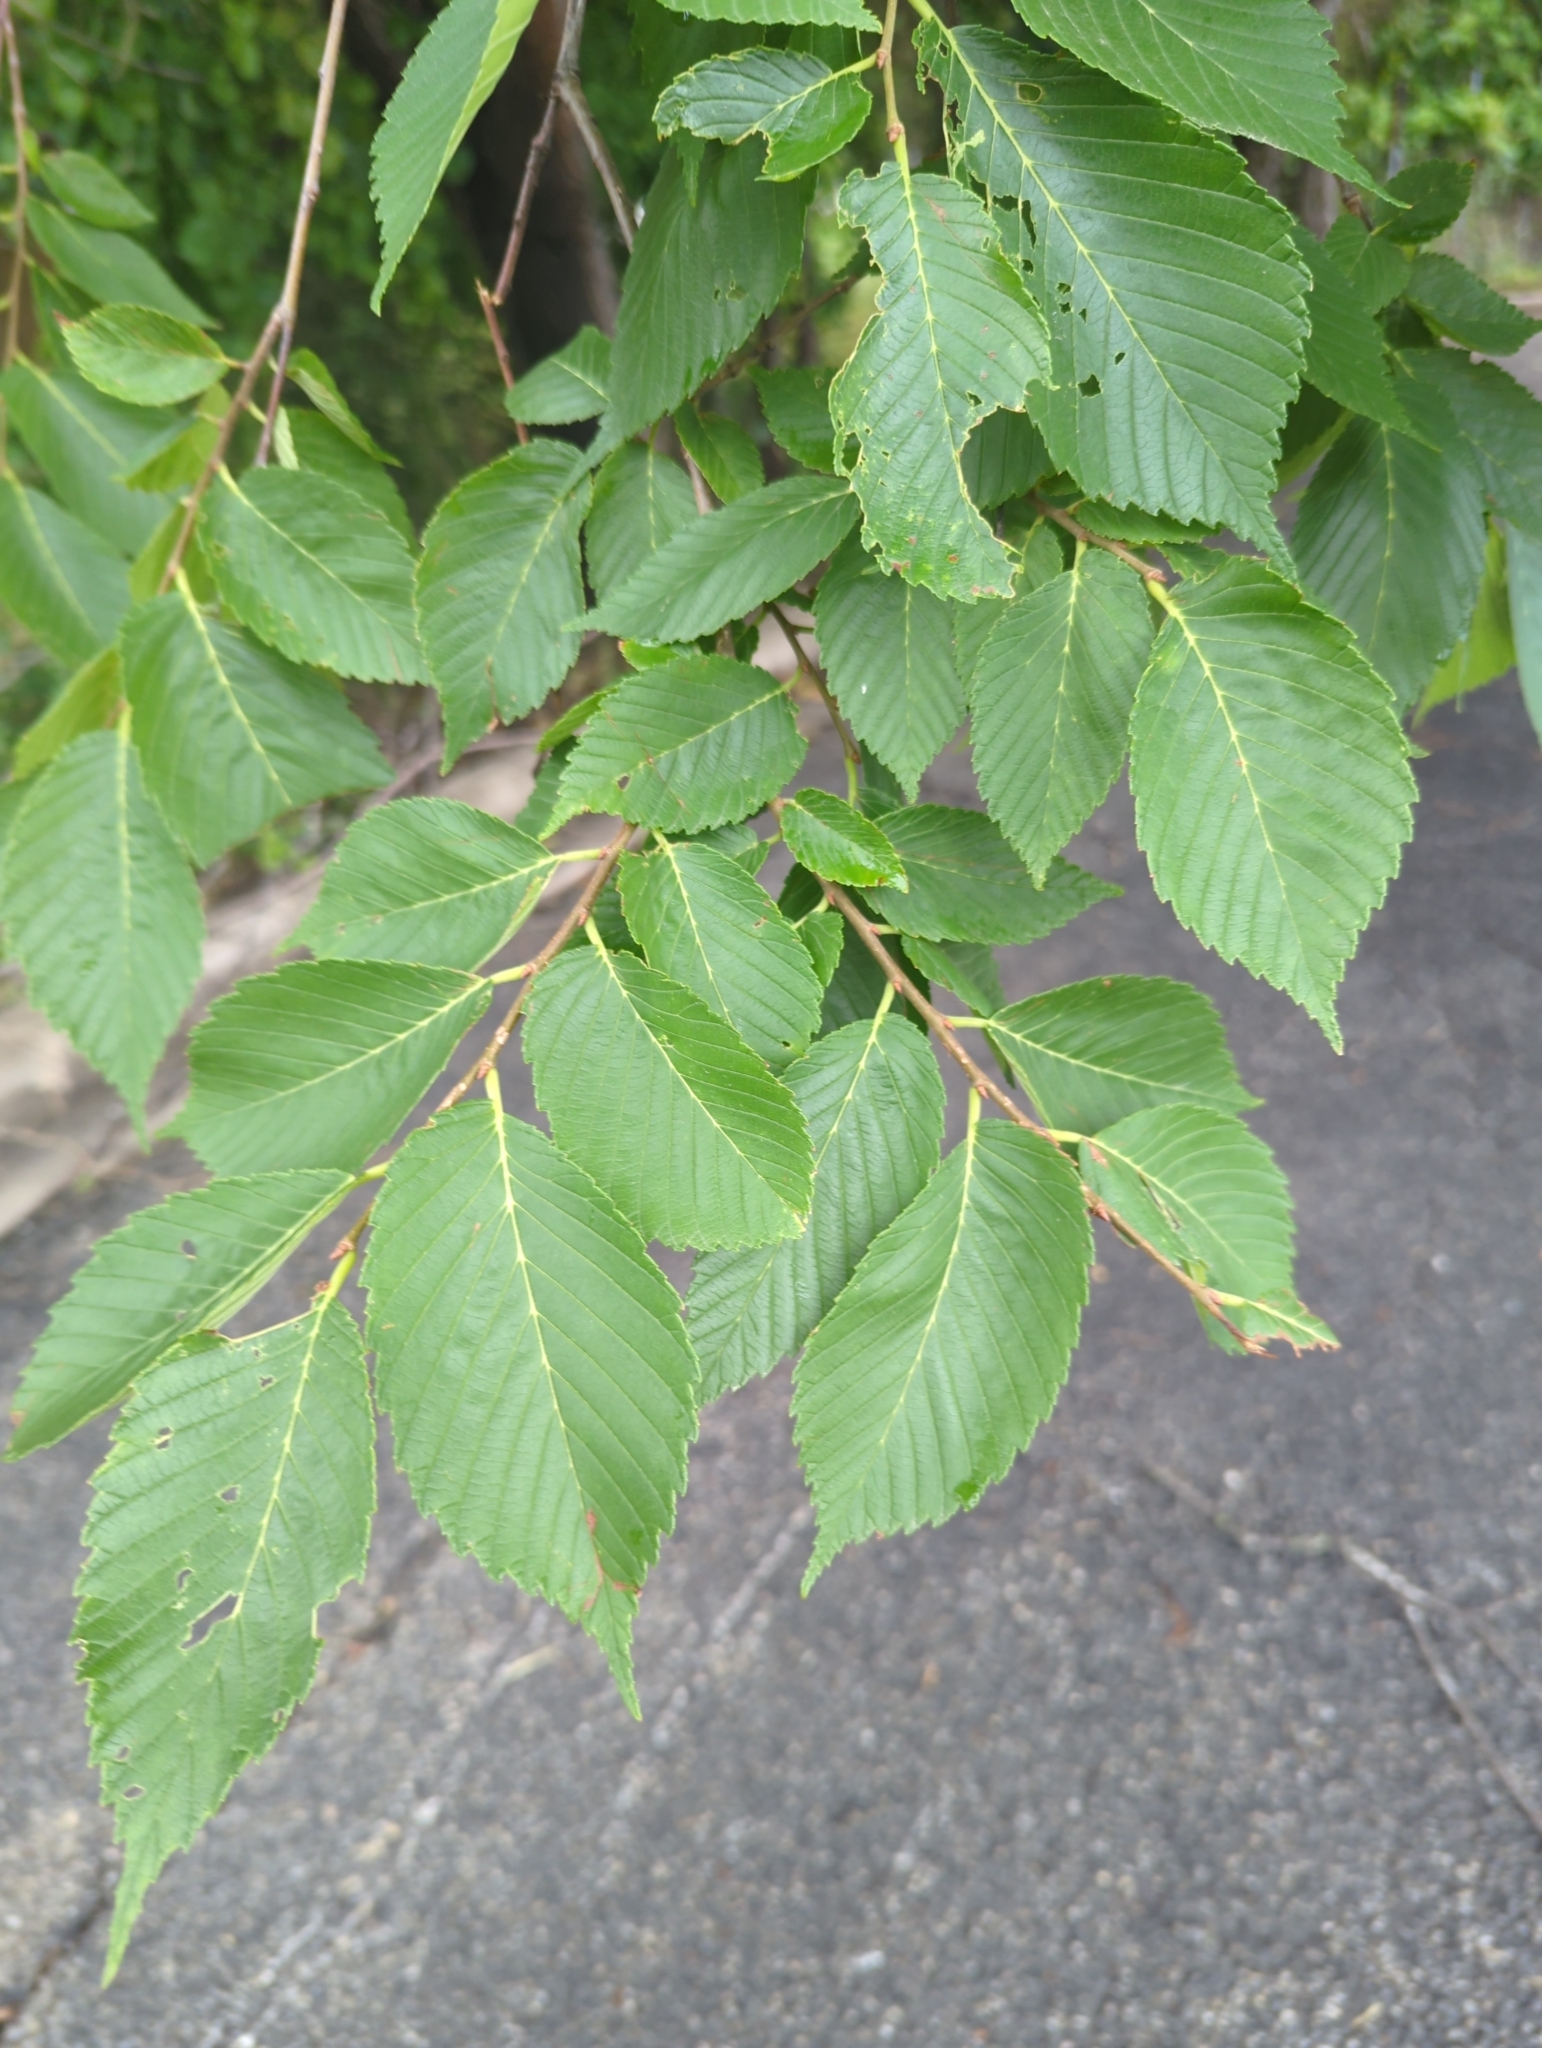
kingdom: Plantae
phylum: Tracheophyta
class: Magnoliopsida
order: Rosales
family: Ulmaceae
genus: Ulmus
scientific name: Ulmus americana
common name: American elm
